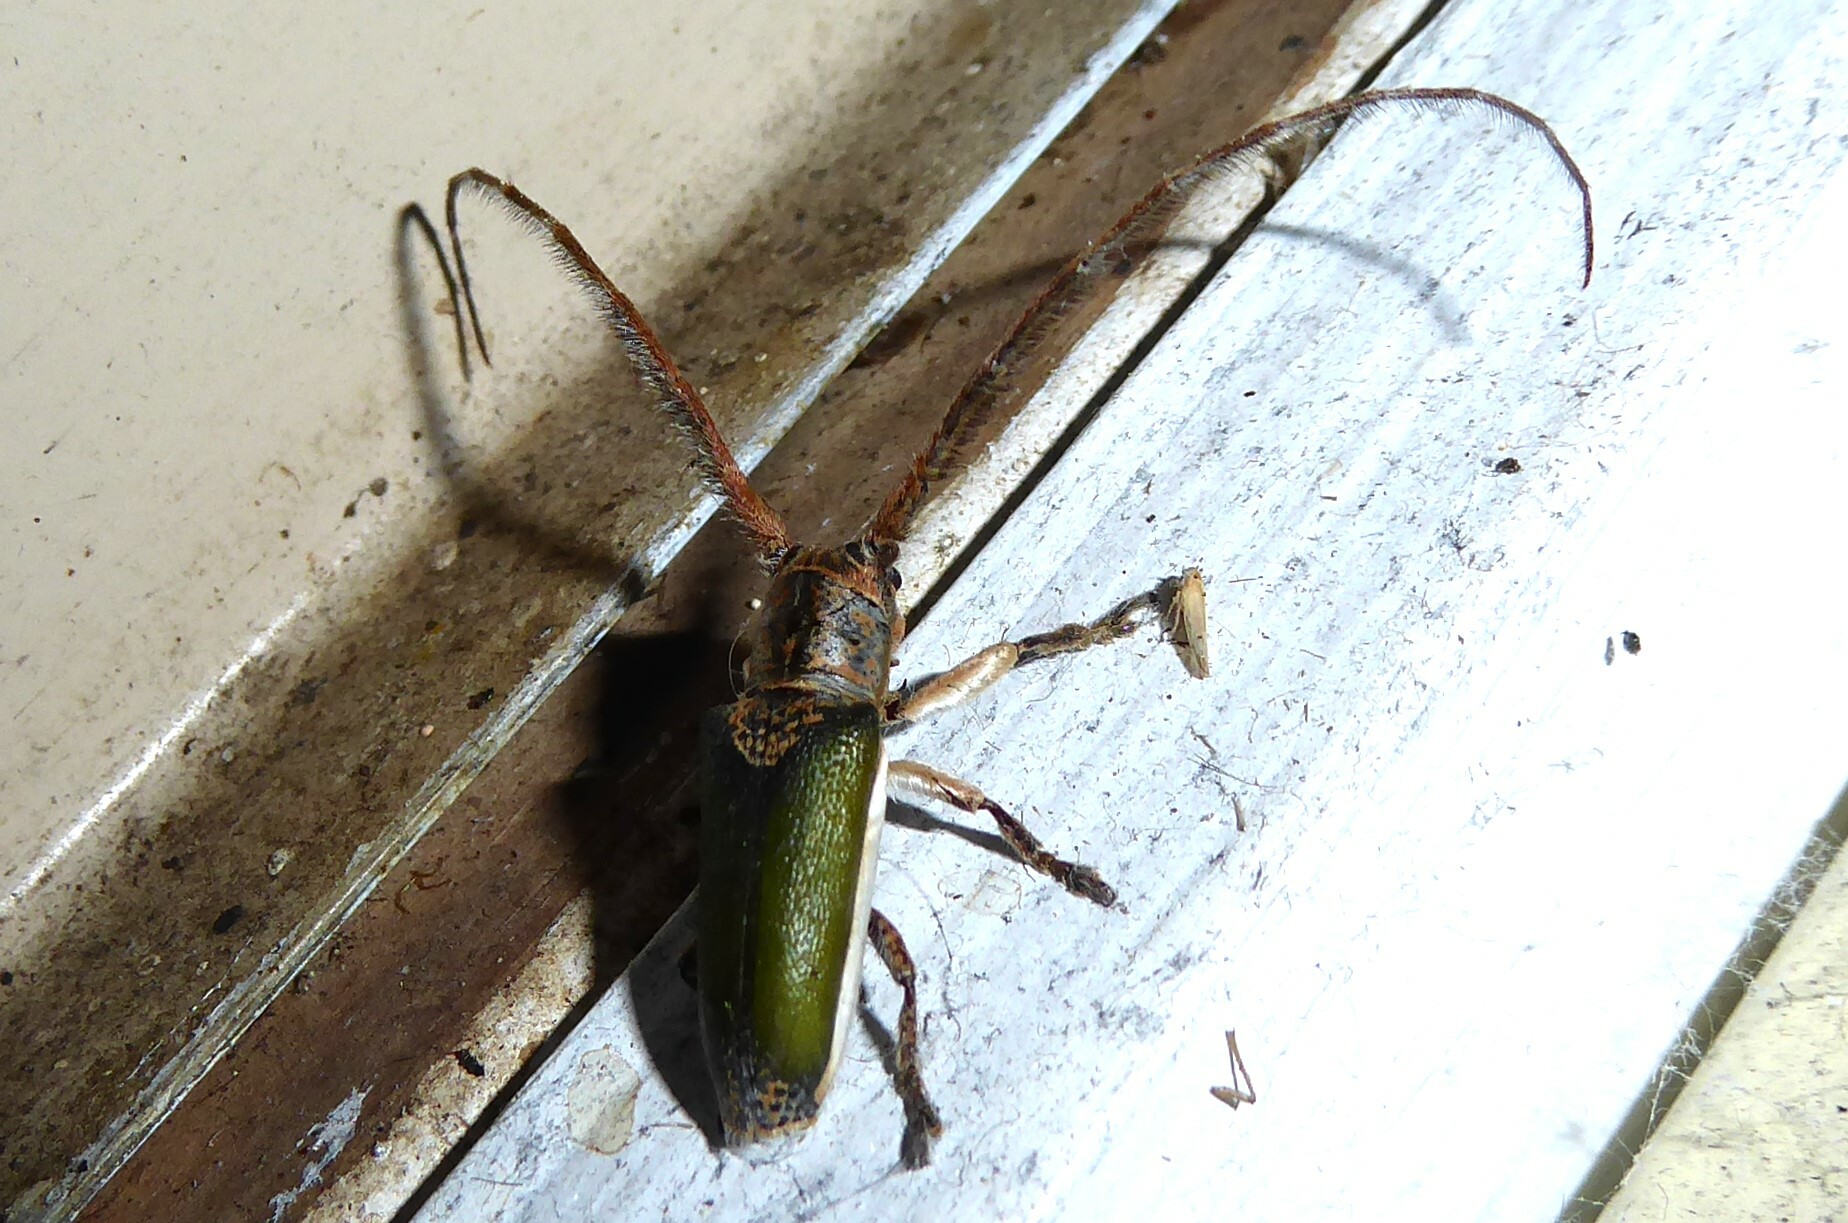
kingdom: Animalia
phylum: Arthropoda
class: Insecta
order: Coleoptera
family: Cerambycidae
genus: Rhytiphora
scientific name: Rhytiphora nigrovirens
